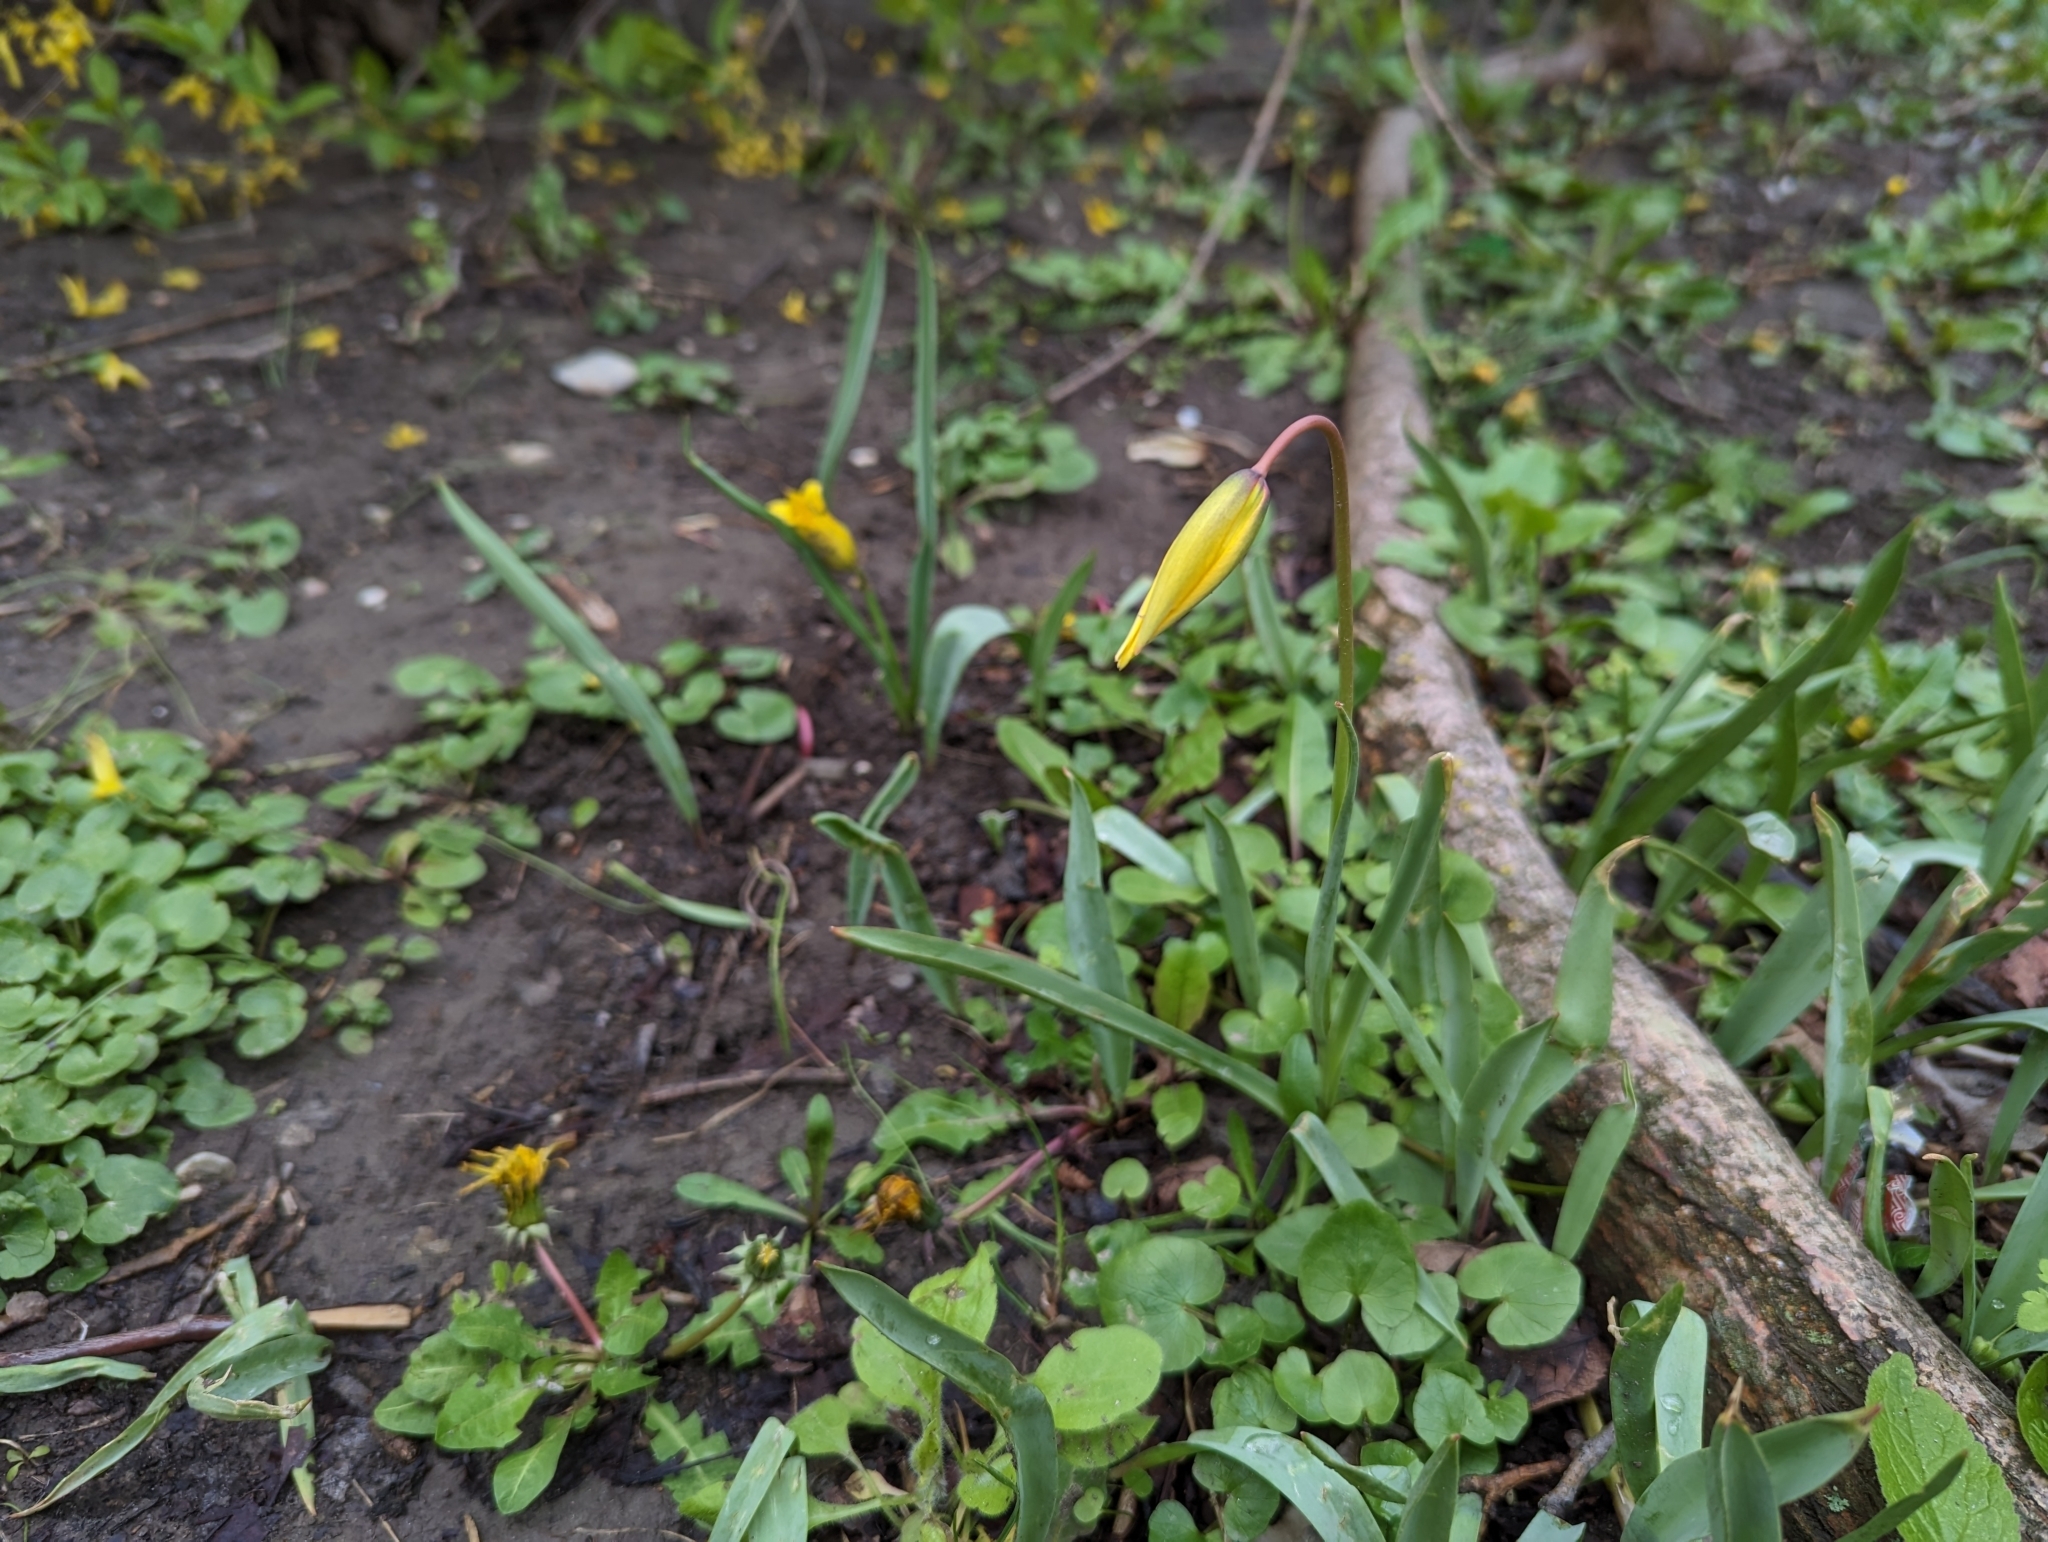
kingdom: Plantae
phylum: Tracheophyta
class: Liliopsida
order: Liliales
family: Liliaceae
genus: Tulipa
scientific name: Tulipa sylvestris
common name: Wild tulip
